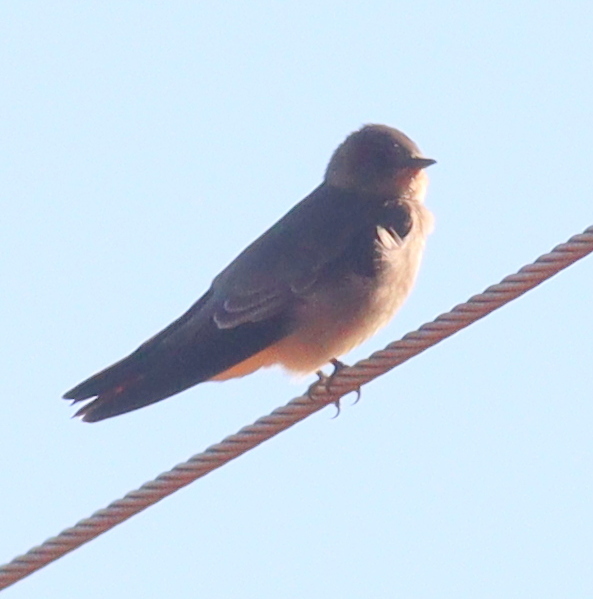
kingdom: Animalia
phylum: Chordata
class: Aves
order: Passeriformes
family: Hirundinidae
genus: Stelgidopteryx
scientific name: Stelgidopteryx ruficollis
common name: Southern rough-winged swallow
